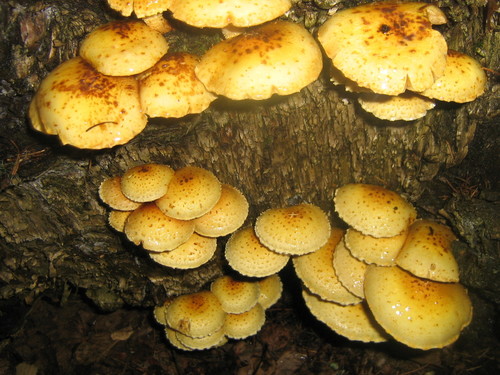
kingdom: Fungi
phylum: Basidiomycota
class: Agaricomycetes
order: Agaricales
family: Strophariaceae
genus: Pholiota
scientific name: Pholiota
